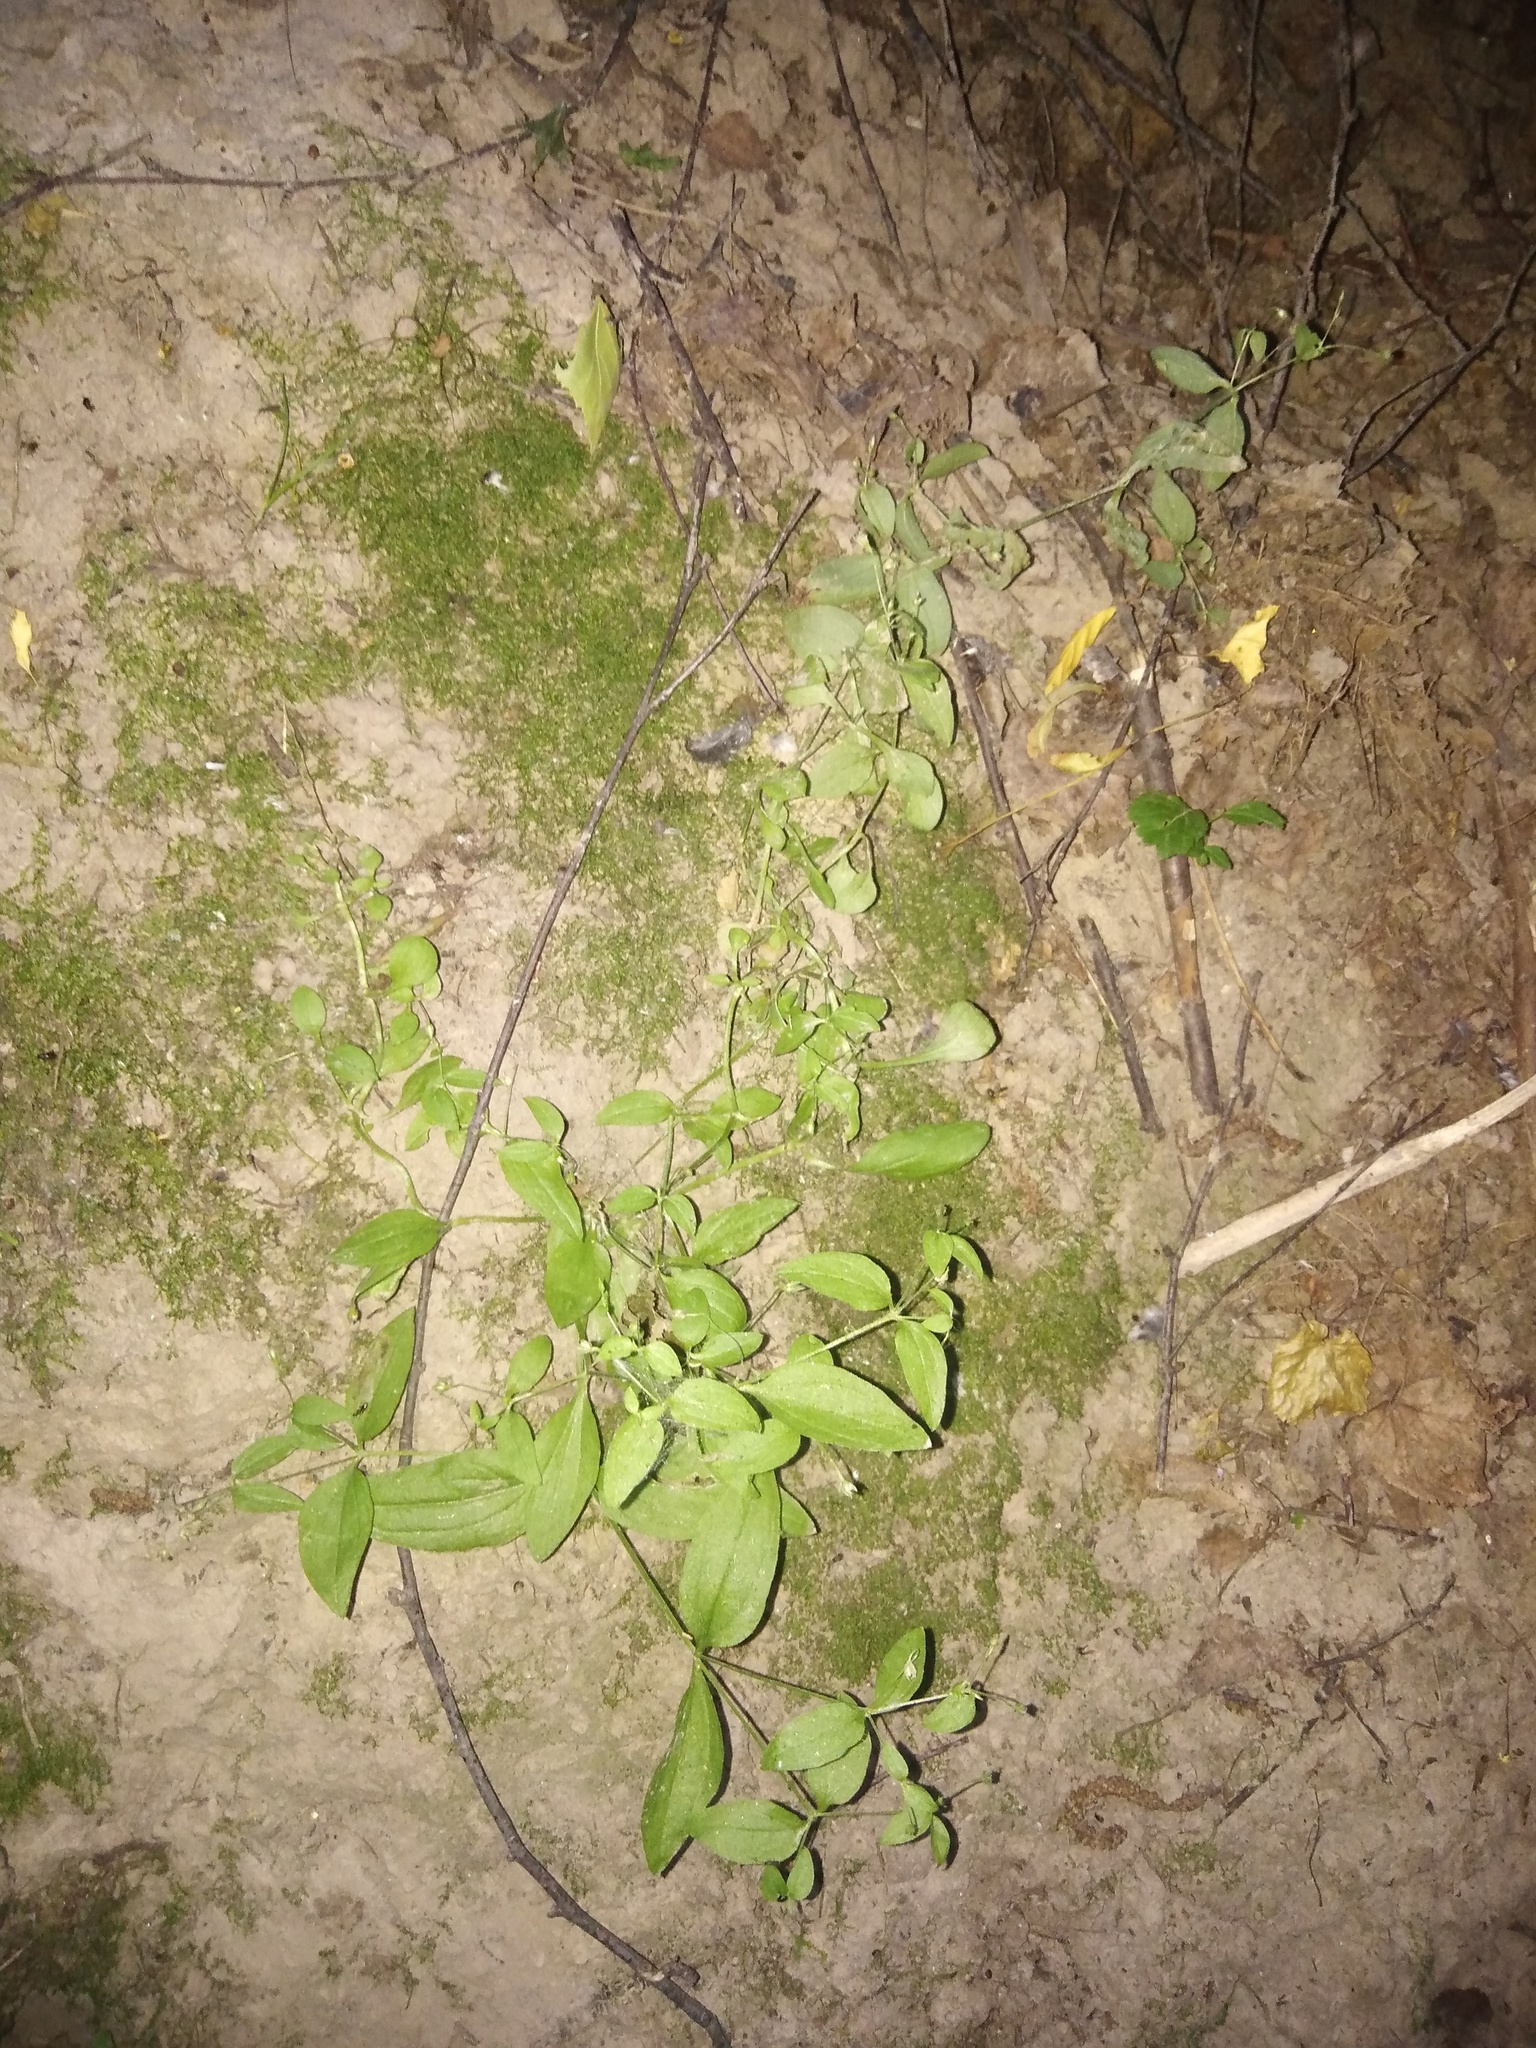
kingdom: Plantae
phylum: Tracheophyta
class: Magnoliopsida
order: Caryophyllales
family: Caryophyllaceae
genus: Moehringia
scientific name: Moehringia trinervia
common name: Three-nerved sandwort
